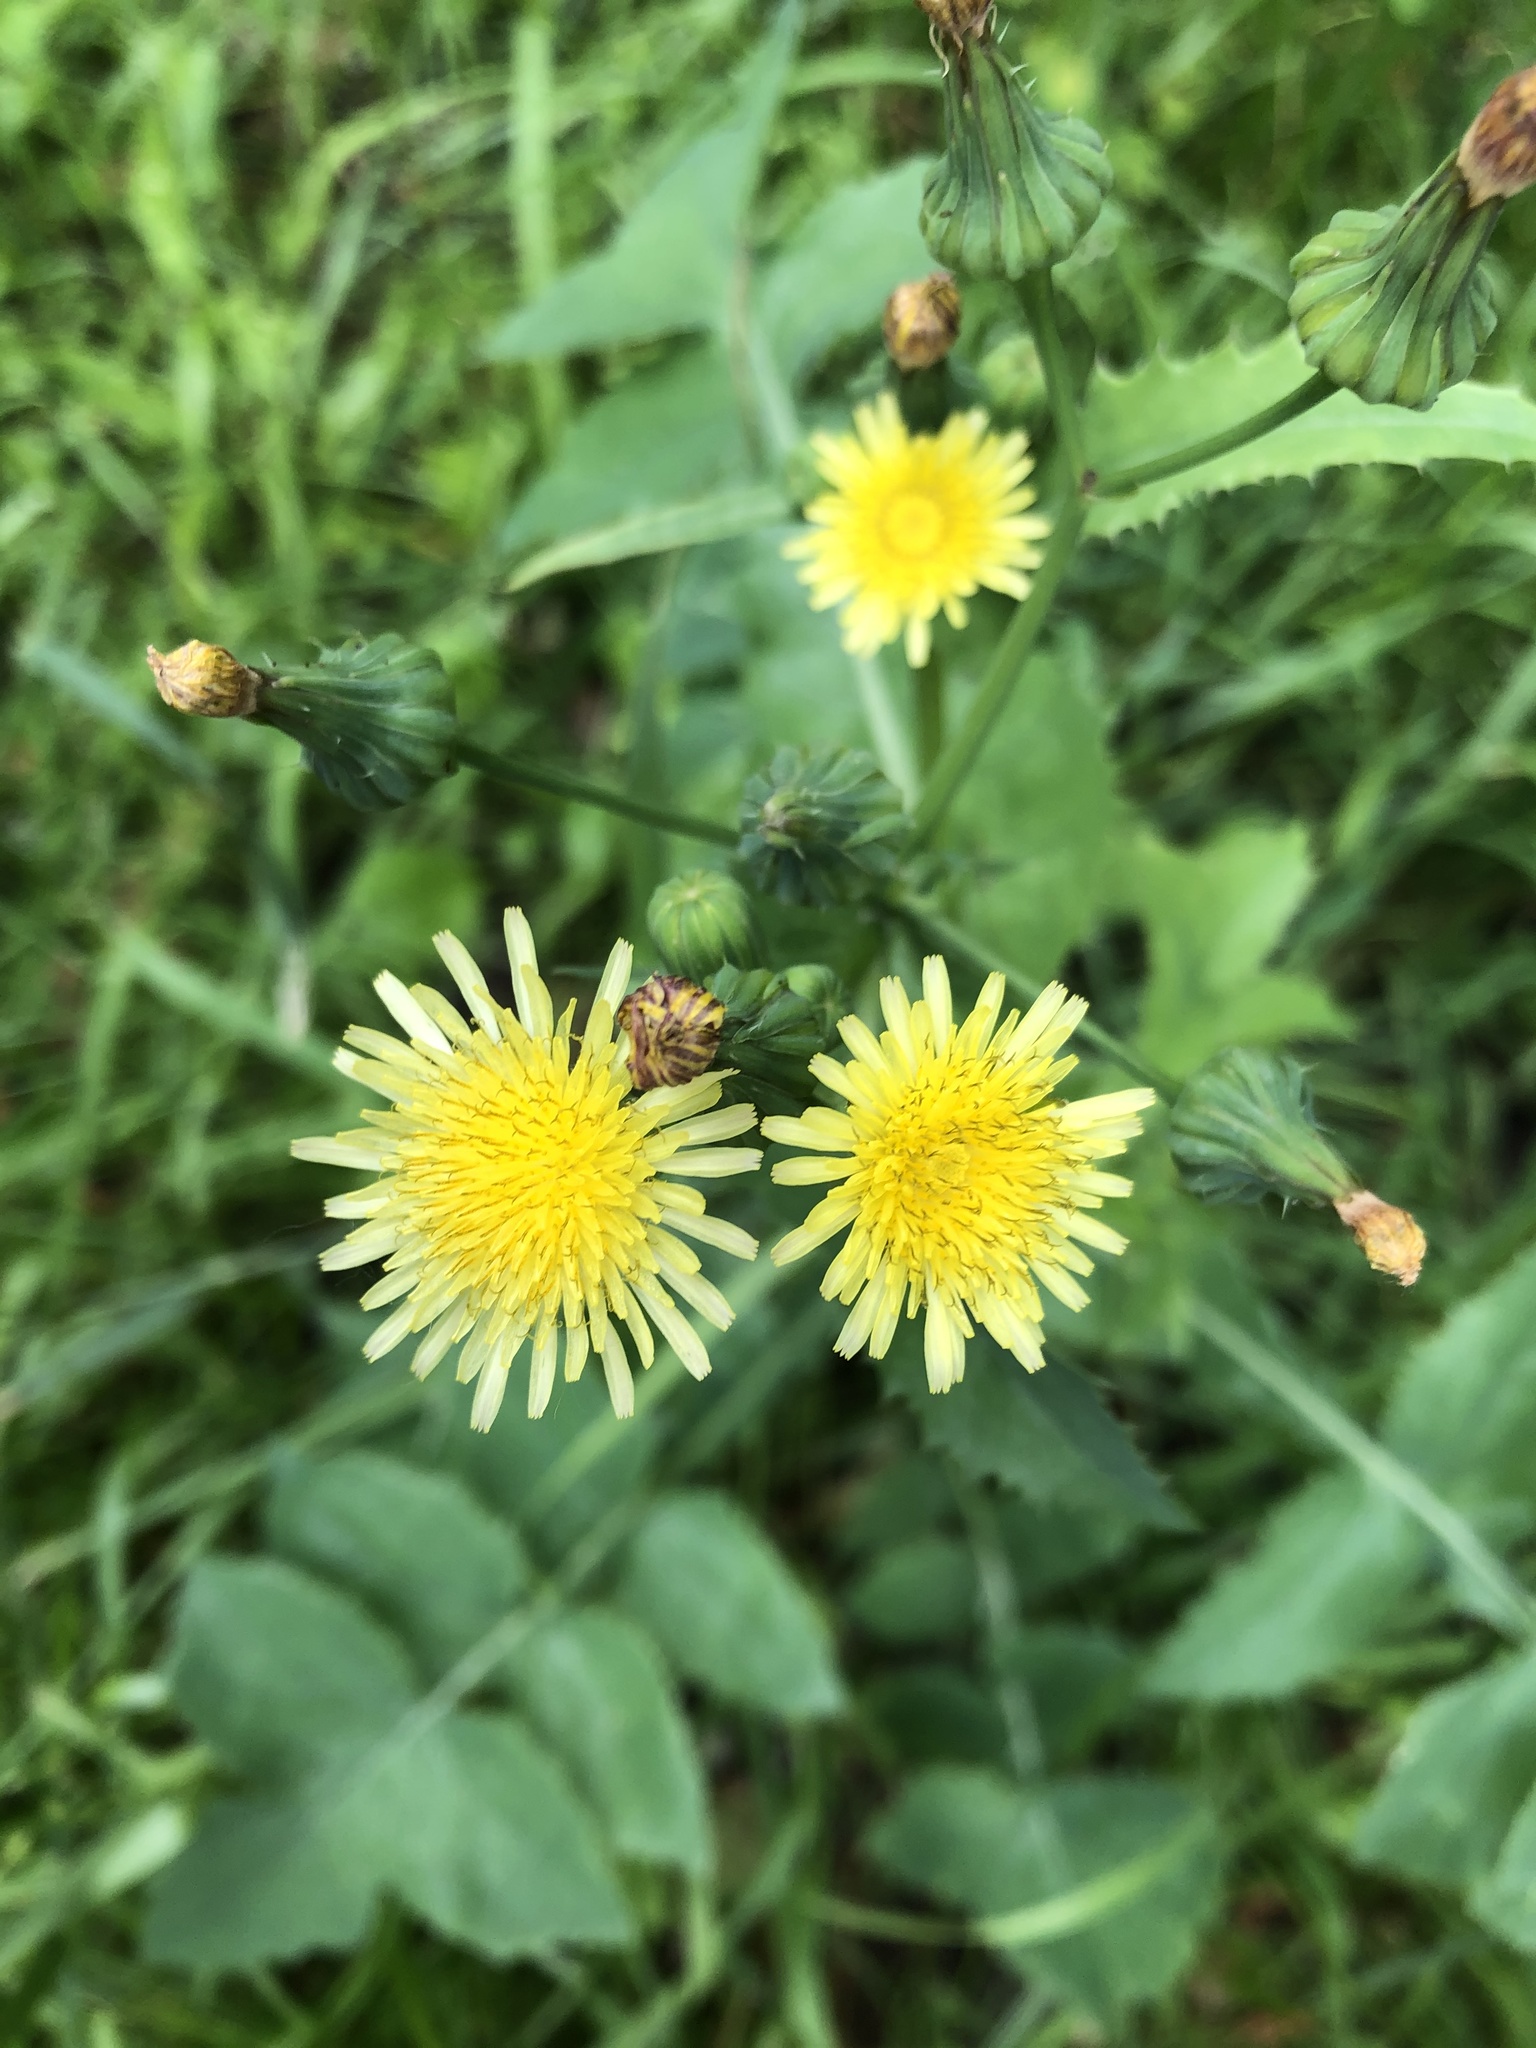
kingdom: Plantae
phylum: Tracheophyta
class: Magnoliopsida
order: Asterales
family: Asteraceae
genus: Sonchus
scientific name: Sonchus oleraceus
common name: Common sowthistle
